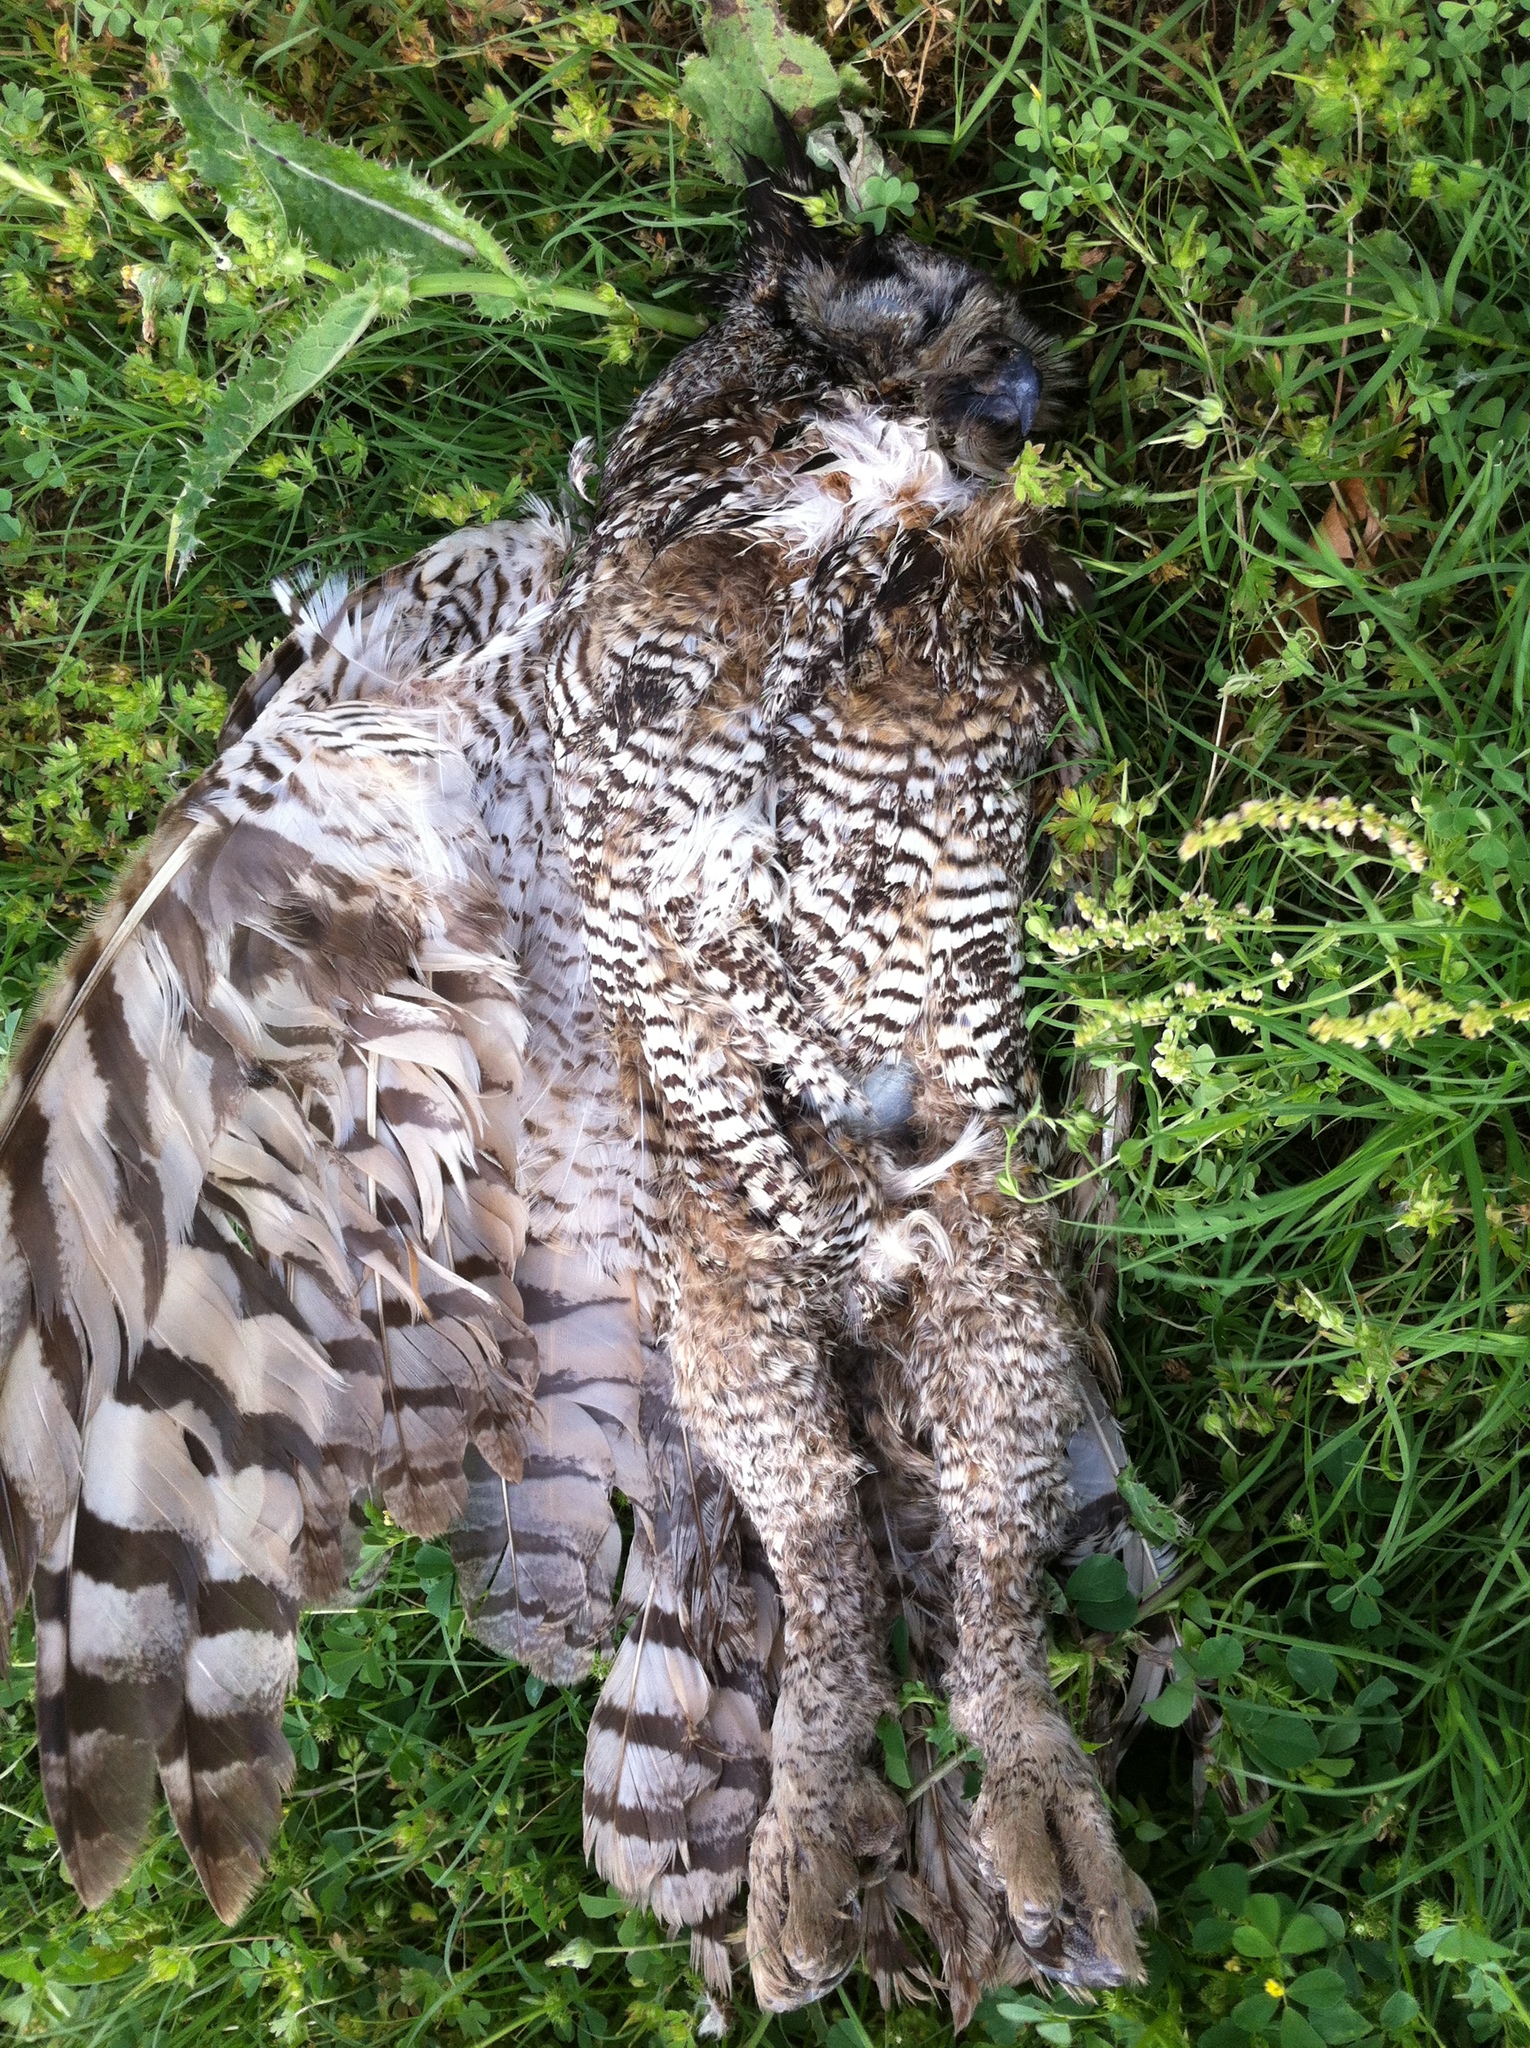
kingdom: Animalia
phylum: Chordata
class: Aves
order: Strigiformes
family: Strigidae
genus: Bubo
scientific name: Bubo virginianus
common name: Great horned owl
